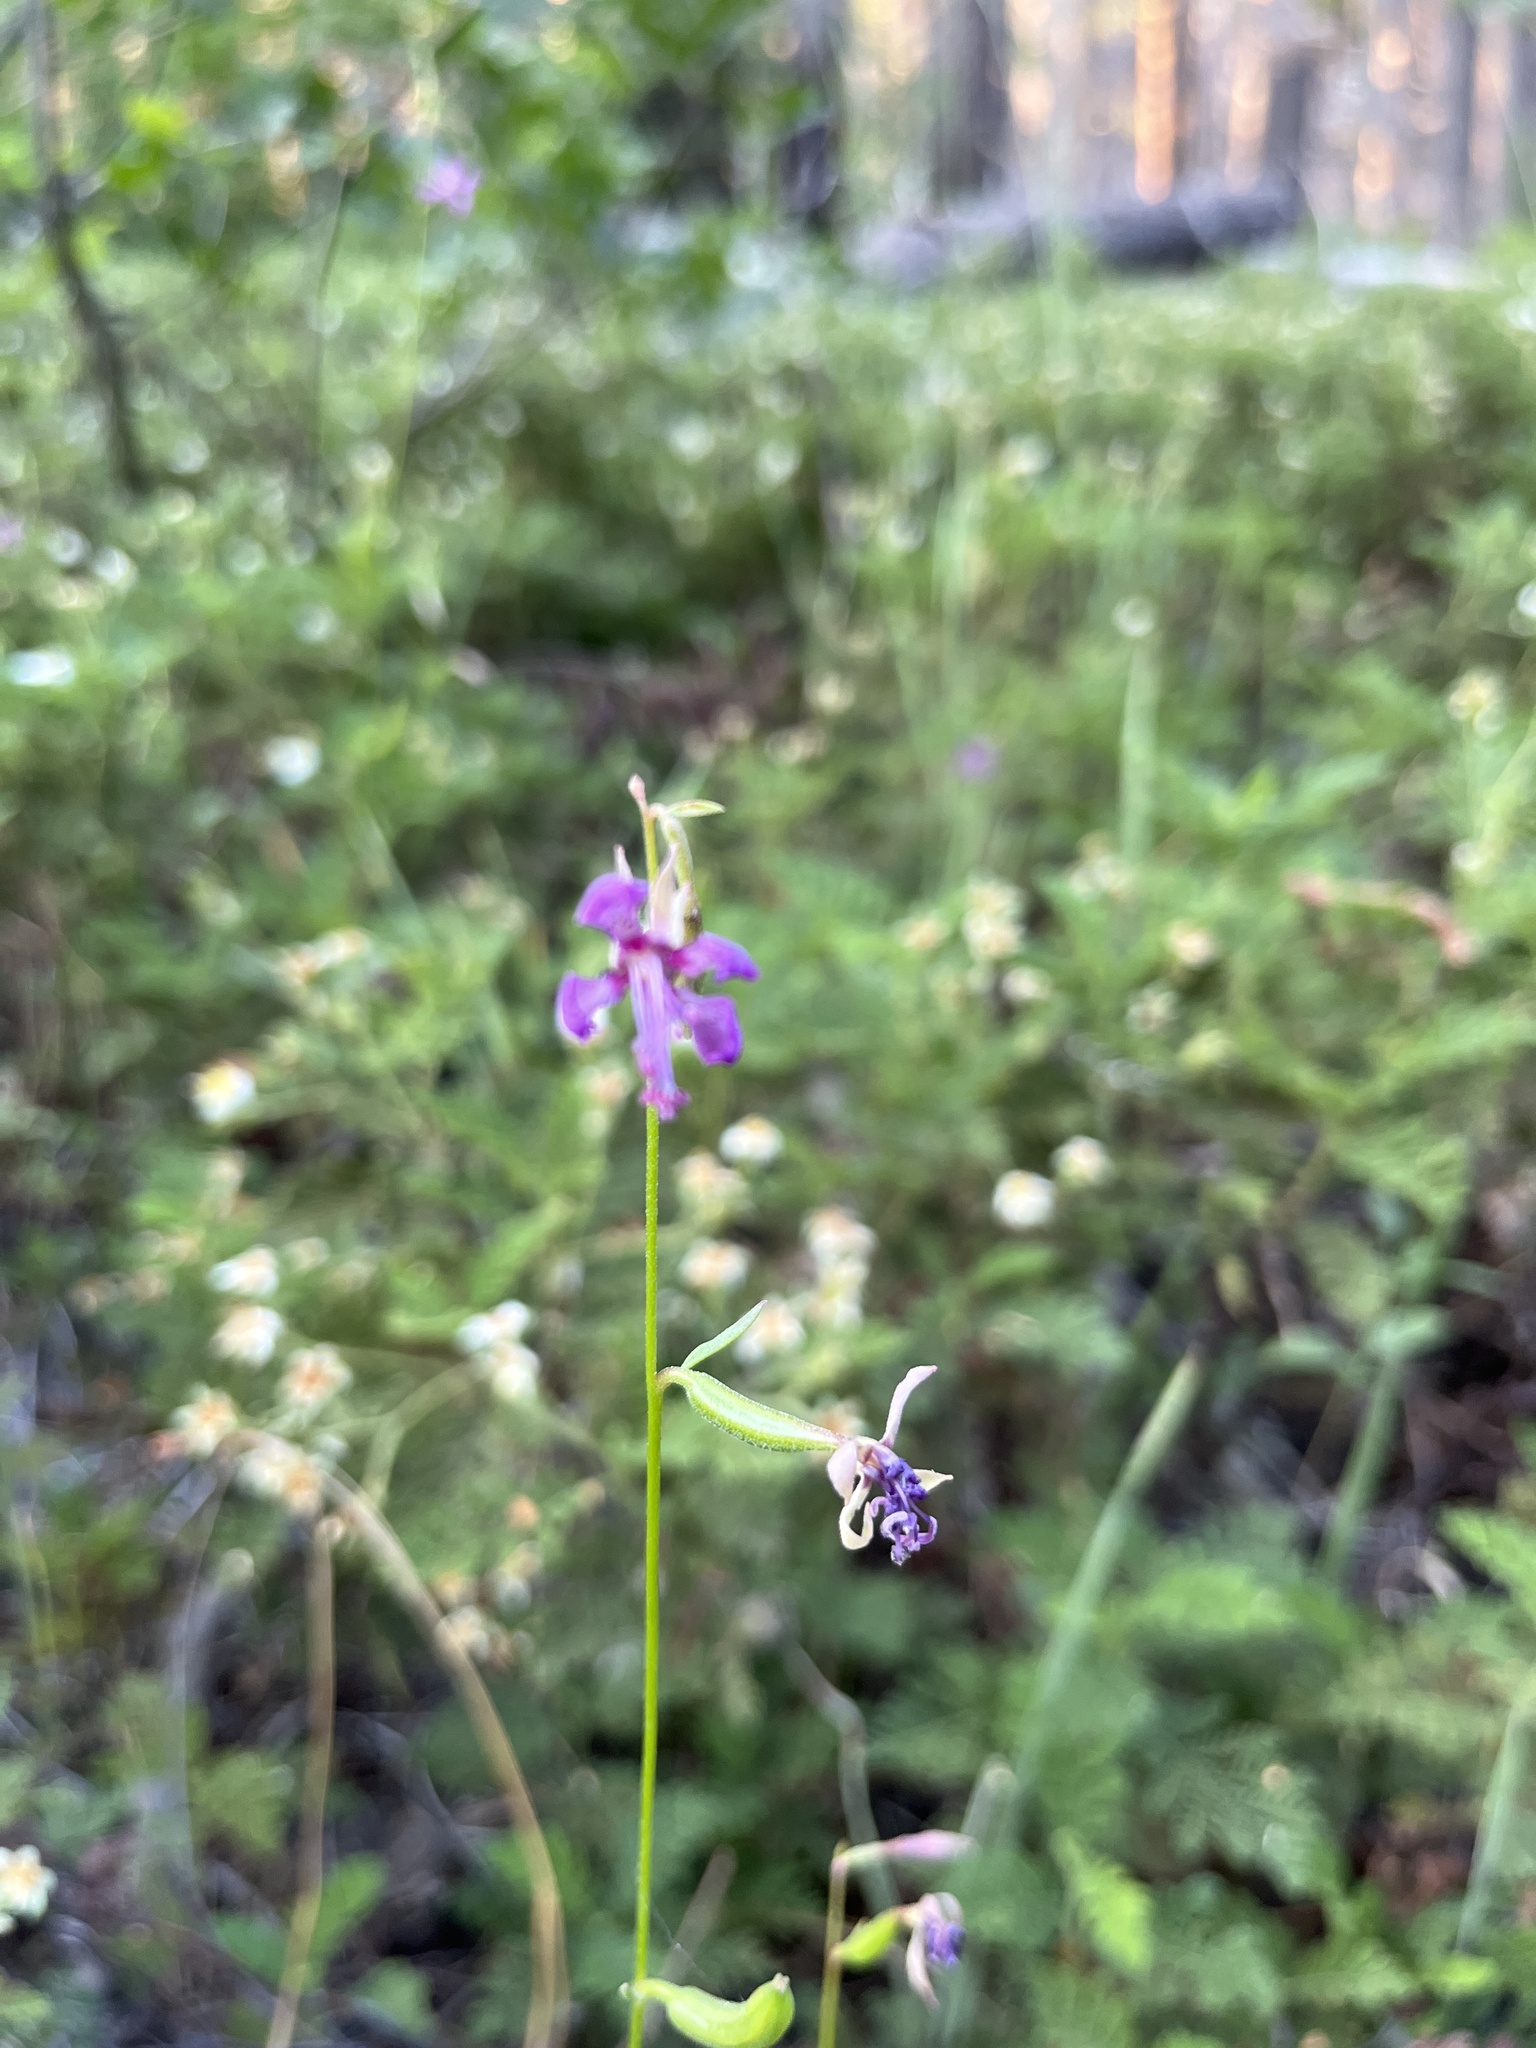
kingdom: Plantae
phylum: Tracheophyta
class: Magnoliopsida
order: Myrtales
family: Onagraceae
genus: Clarkia
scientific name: Clarkia rhomboidea
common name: Broadleaf clarkia
